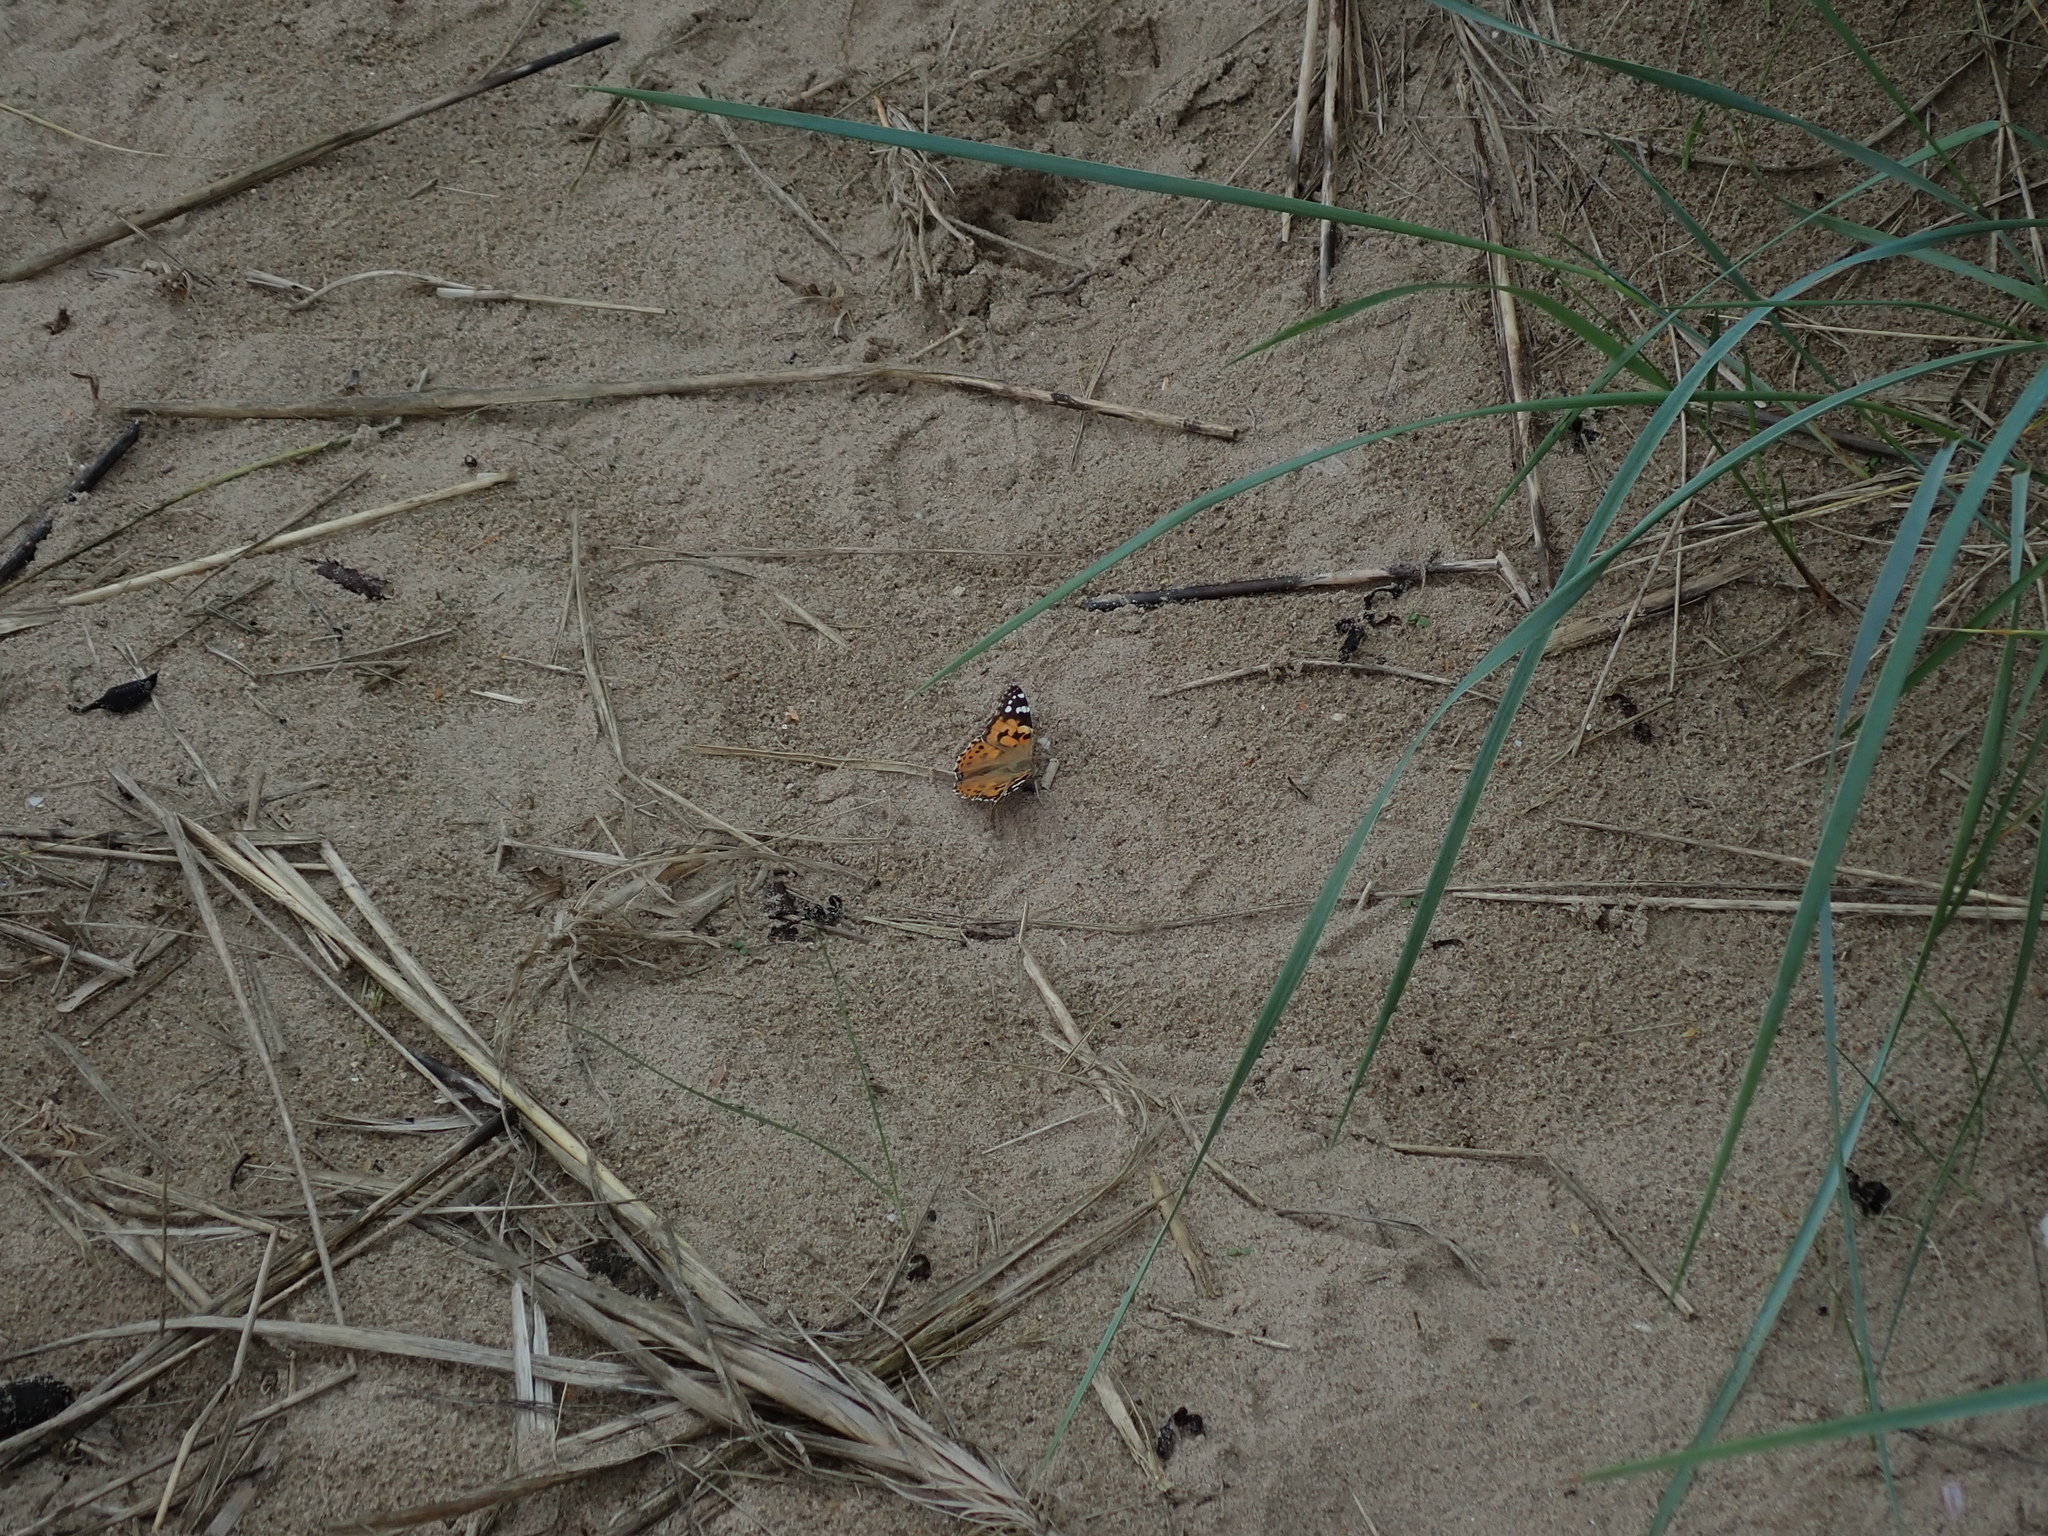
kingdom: Animalia
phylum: Arthropoda
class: Insecta
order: Lepidoptera
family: Nymphalidae
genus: Vanessa
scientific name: Vanessa cardui
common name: Painted lady
